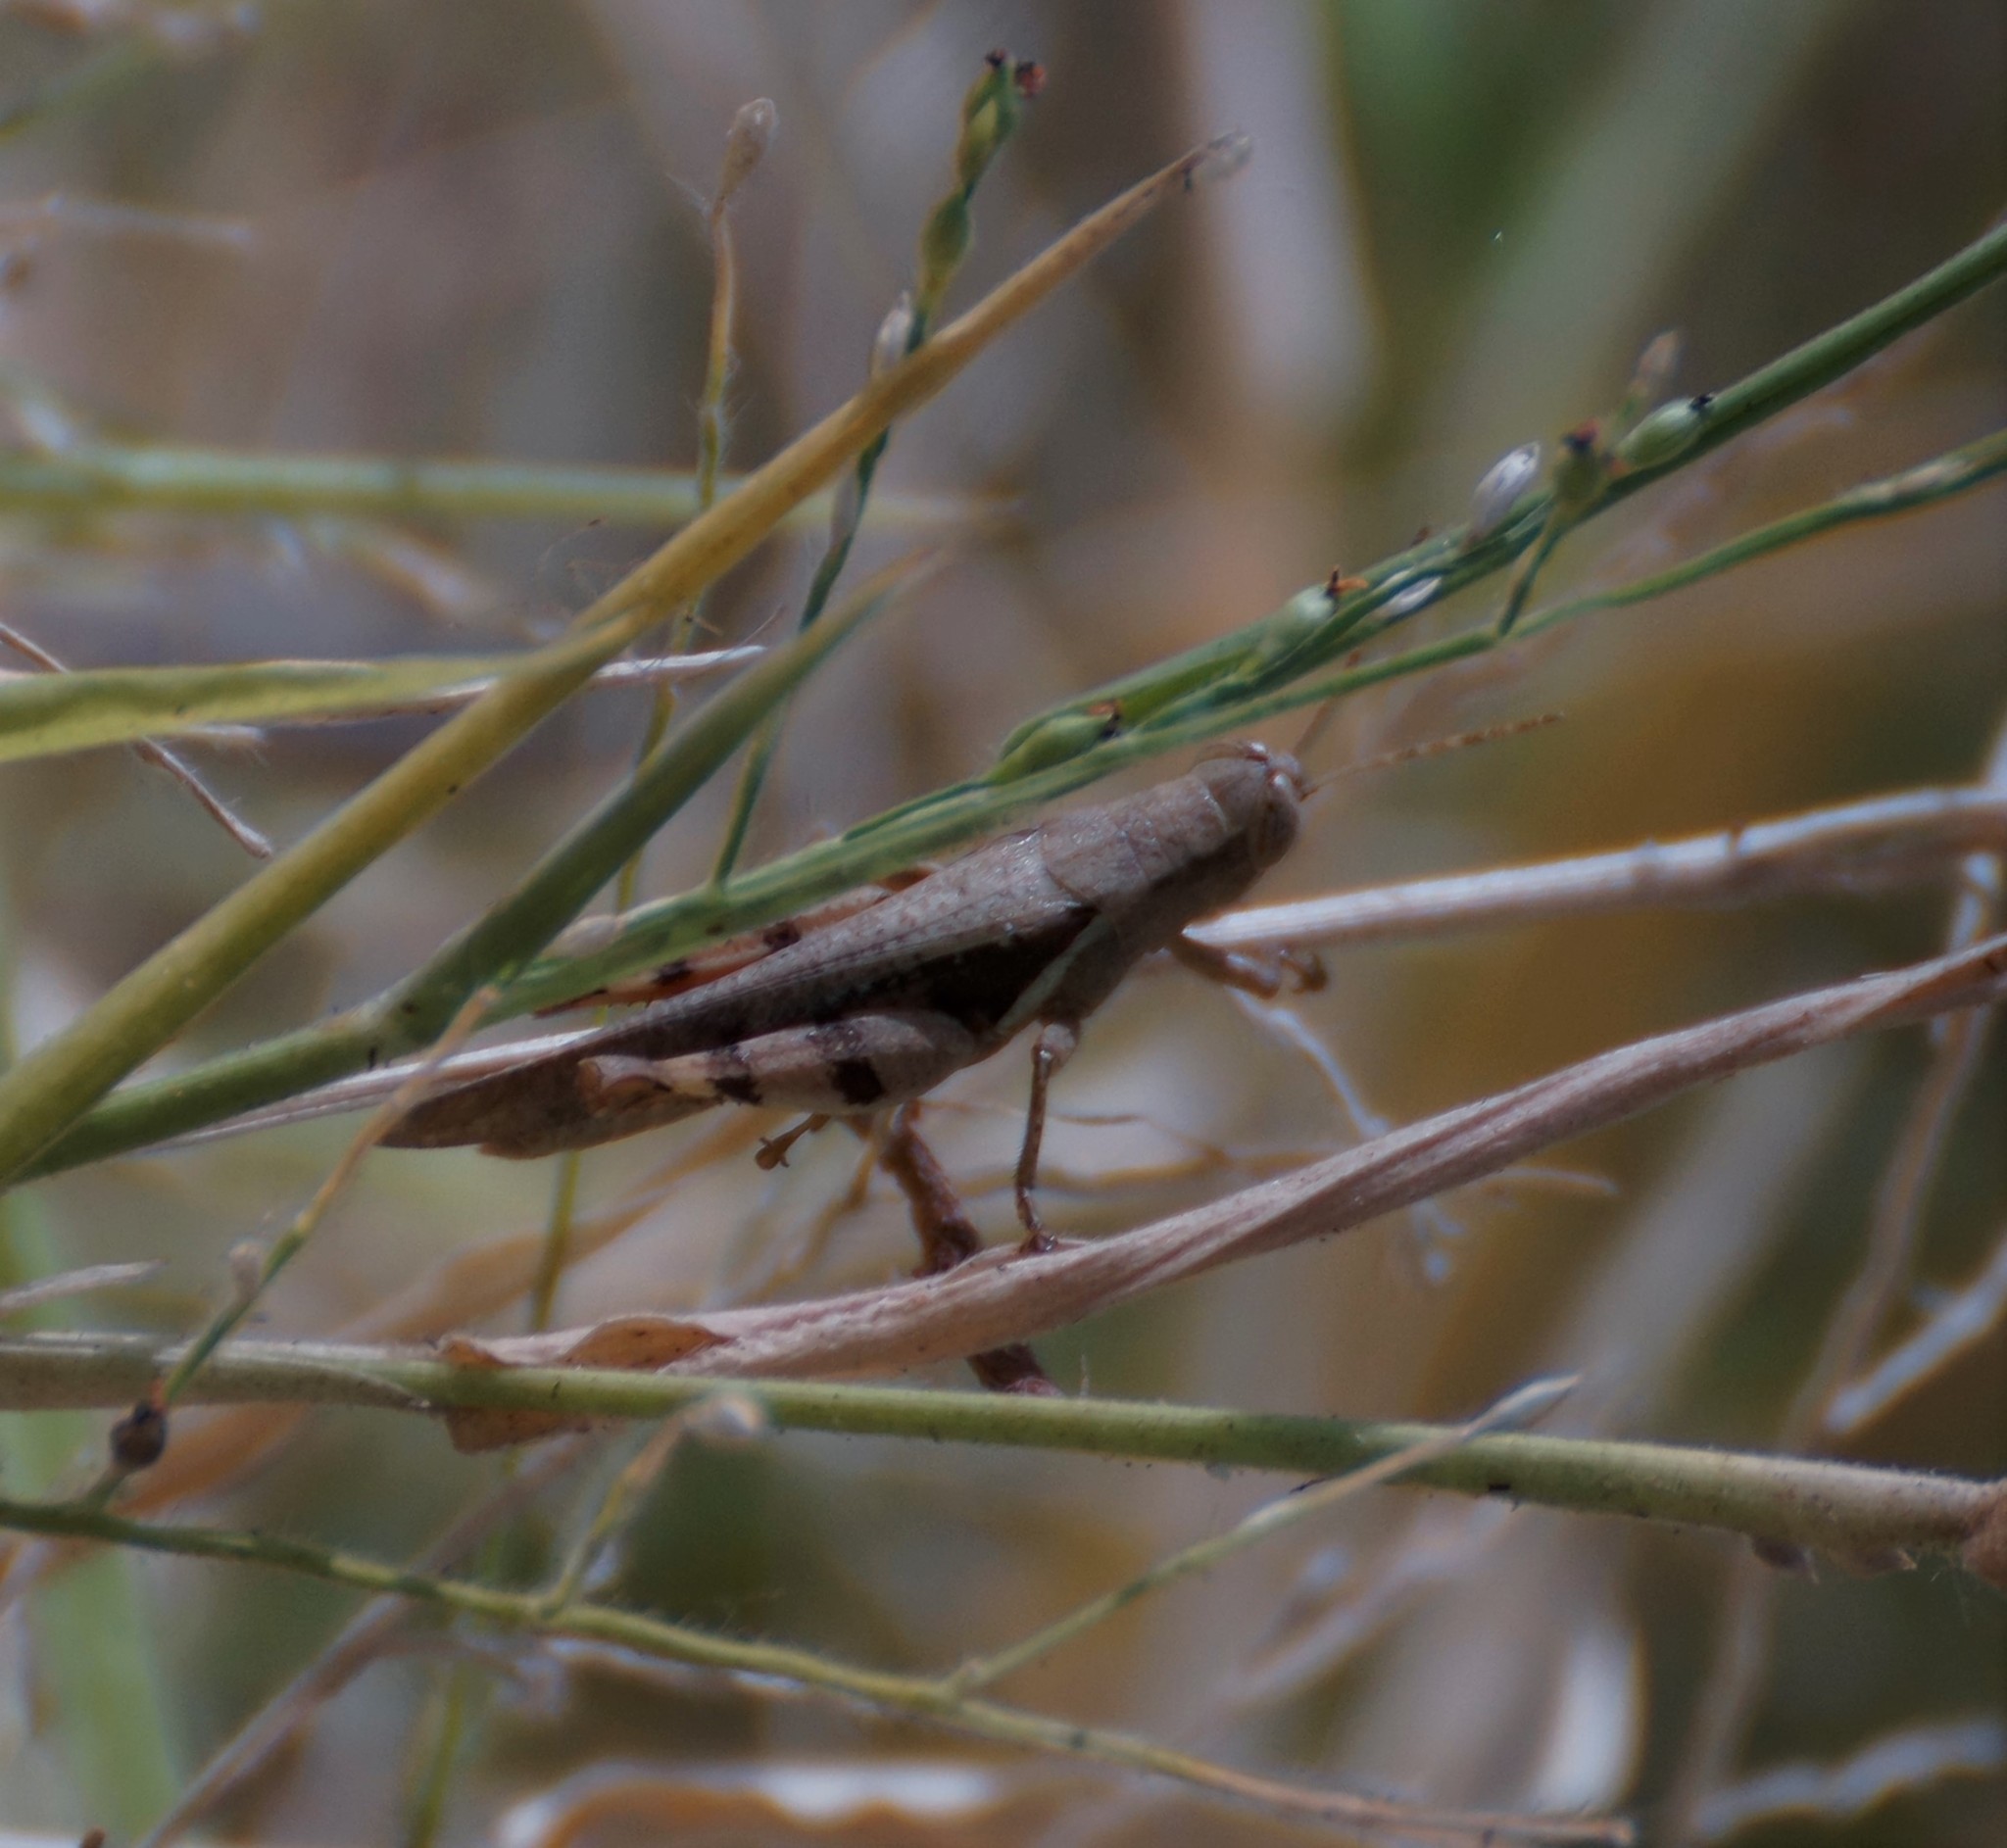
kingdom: Animalia
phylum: Arthropoda
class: Insecta
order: Orthoptera
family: Acrididae
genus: Stenocatantops
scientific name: Stenocatantops angustifrons
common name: Common tropical sharptail
